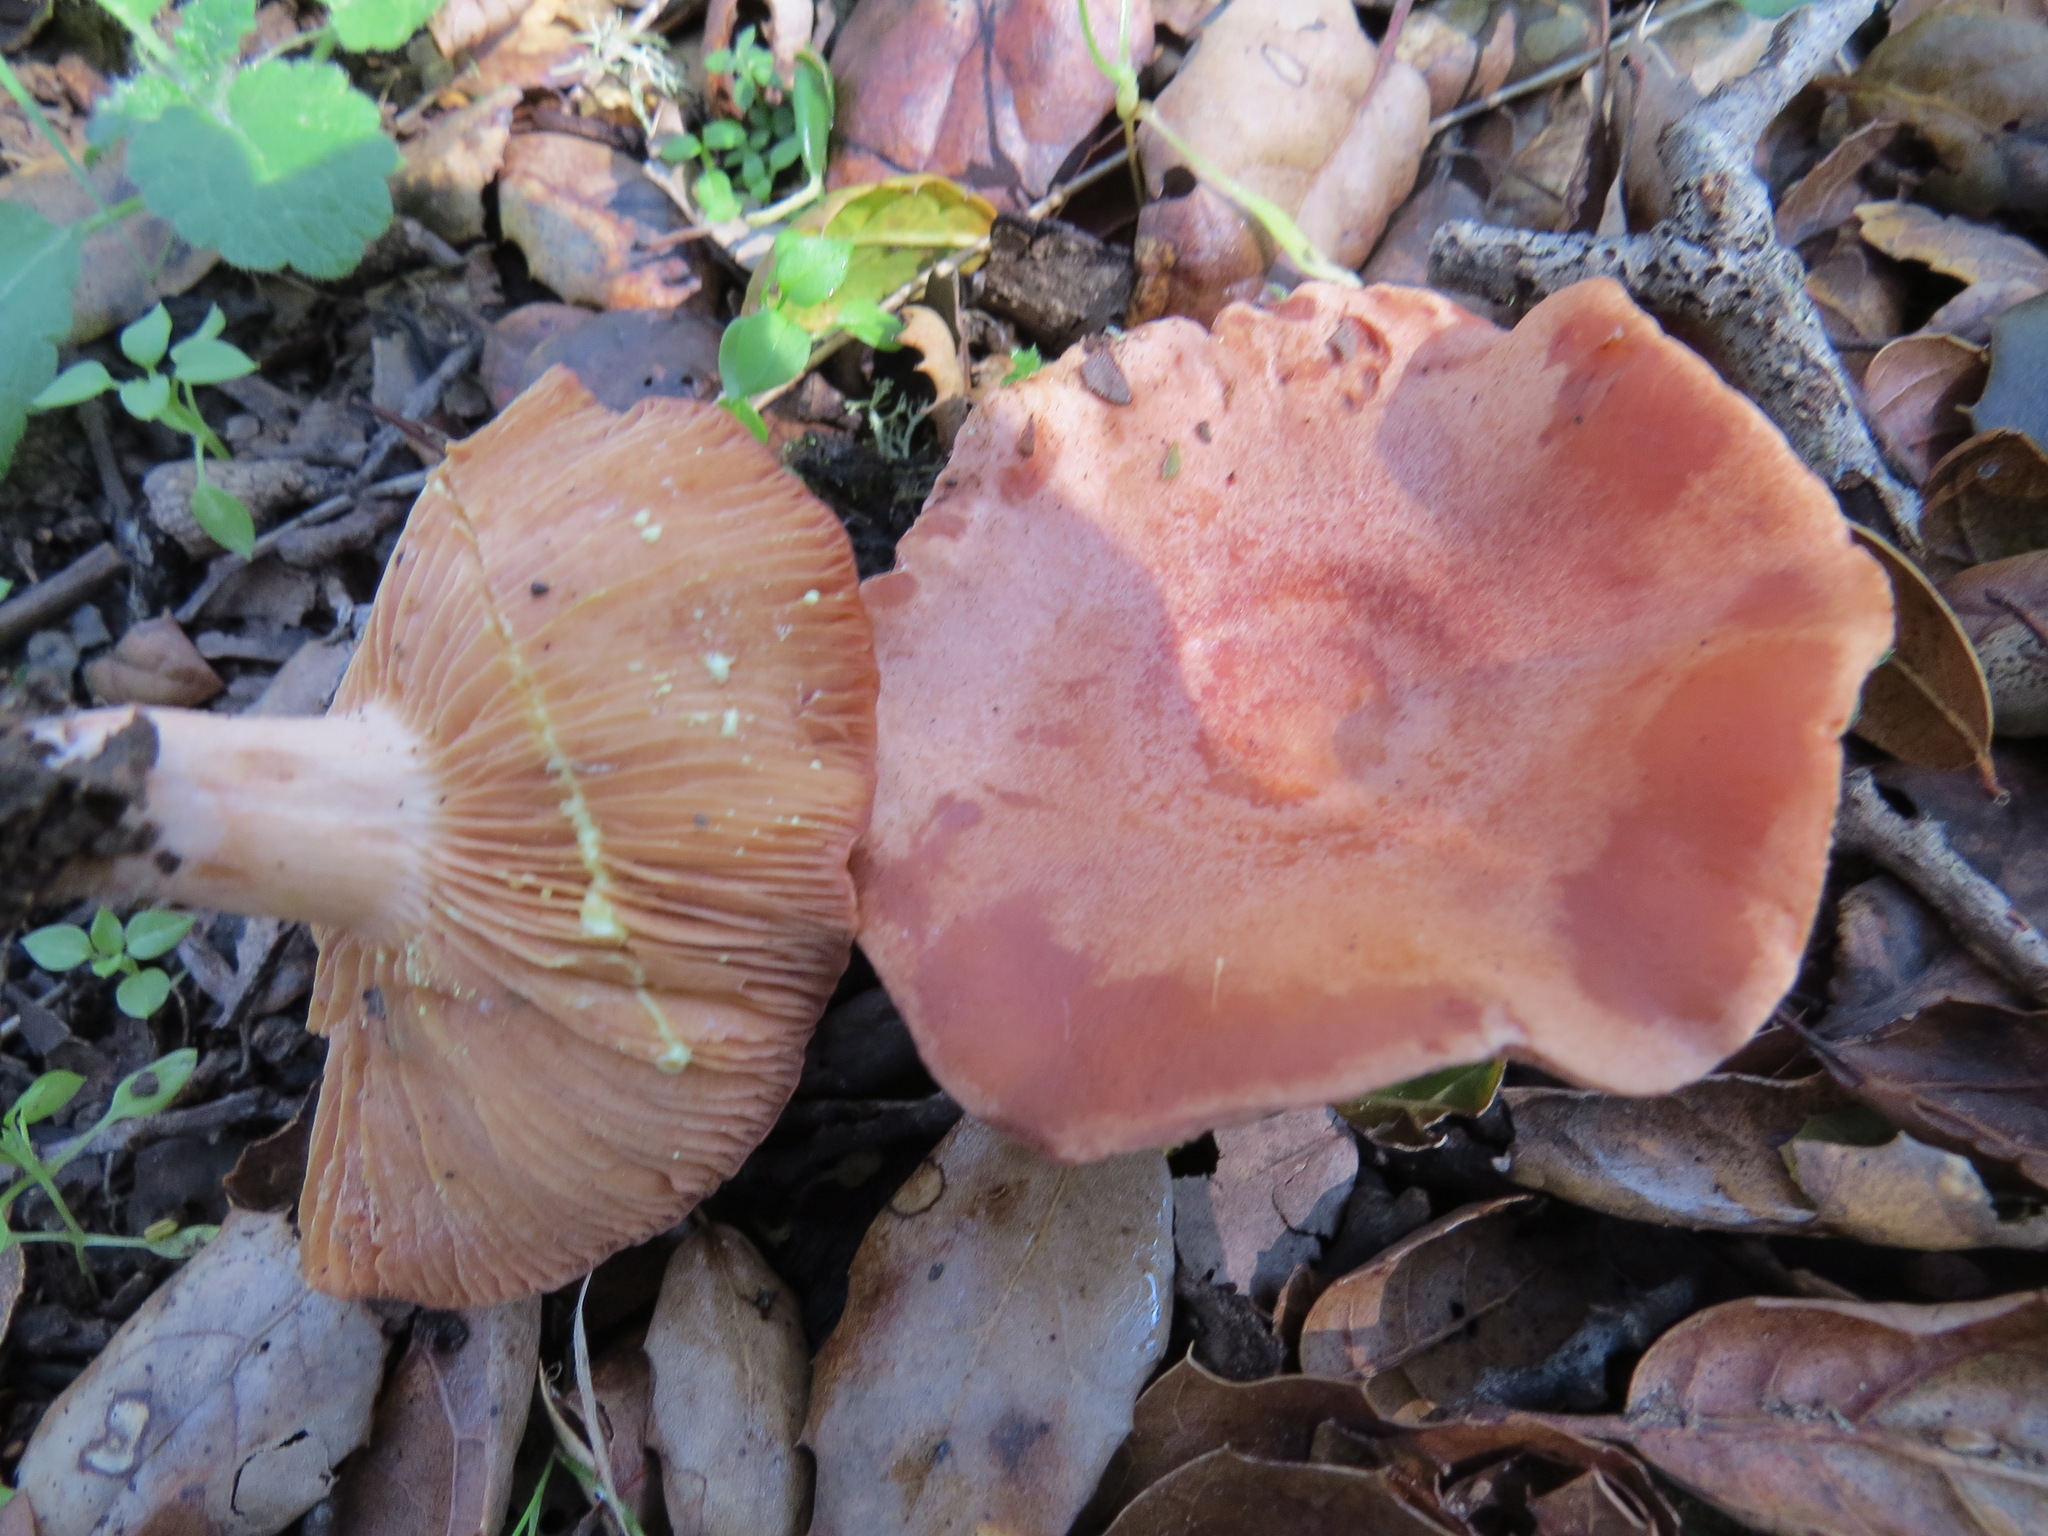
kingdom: Fungi
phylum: Basidiomycota
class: Agaricomycetes
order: Russulales
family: Russulaceae
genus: Lactarius
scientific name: Lactarius xanthogalactus
